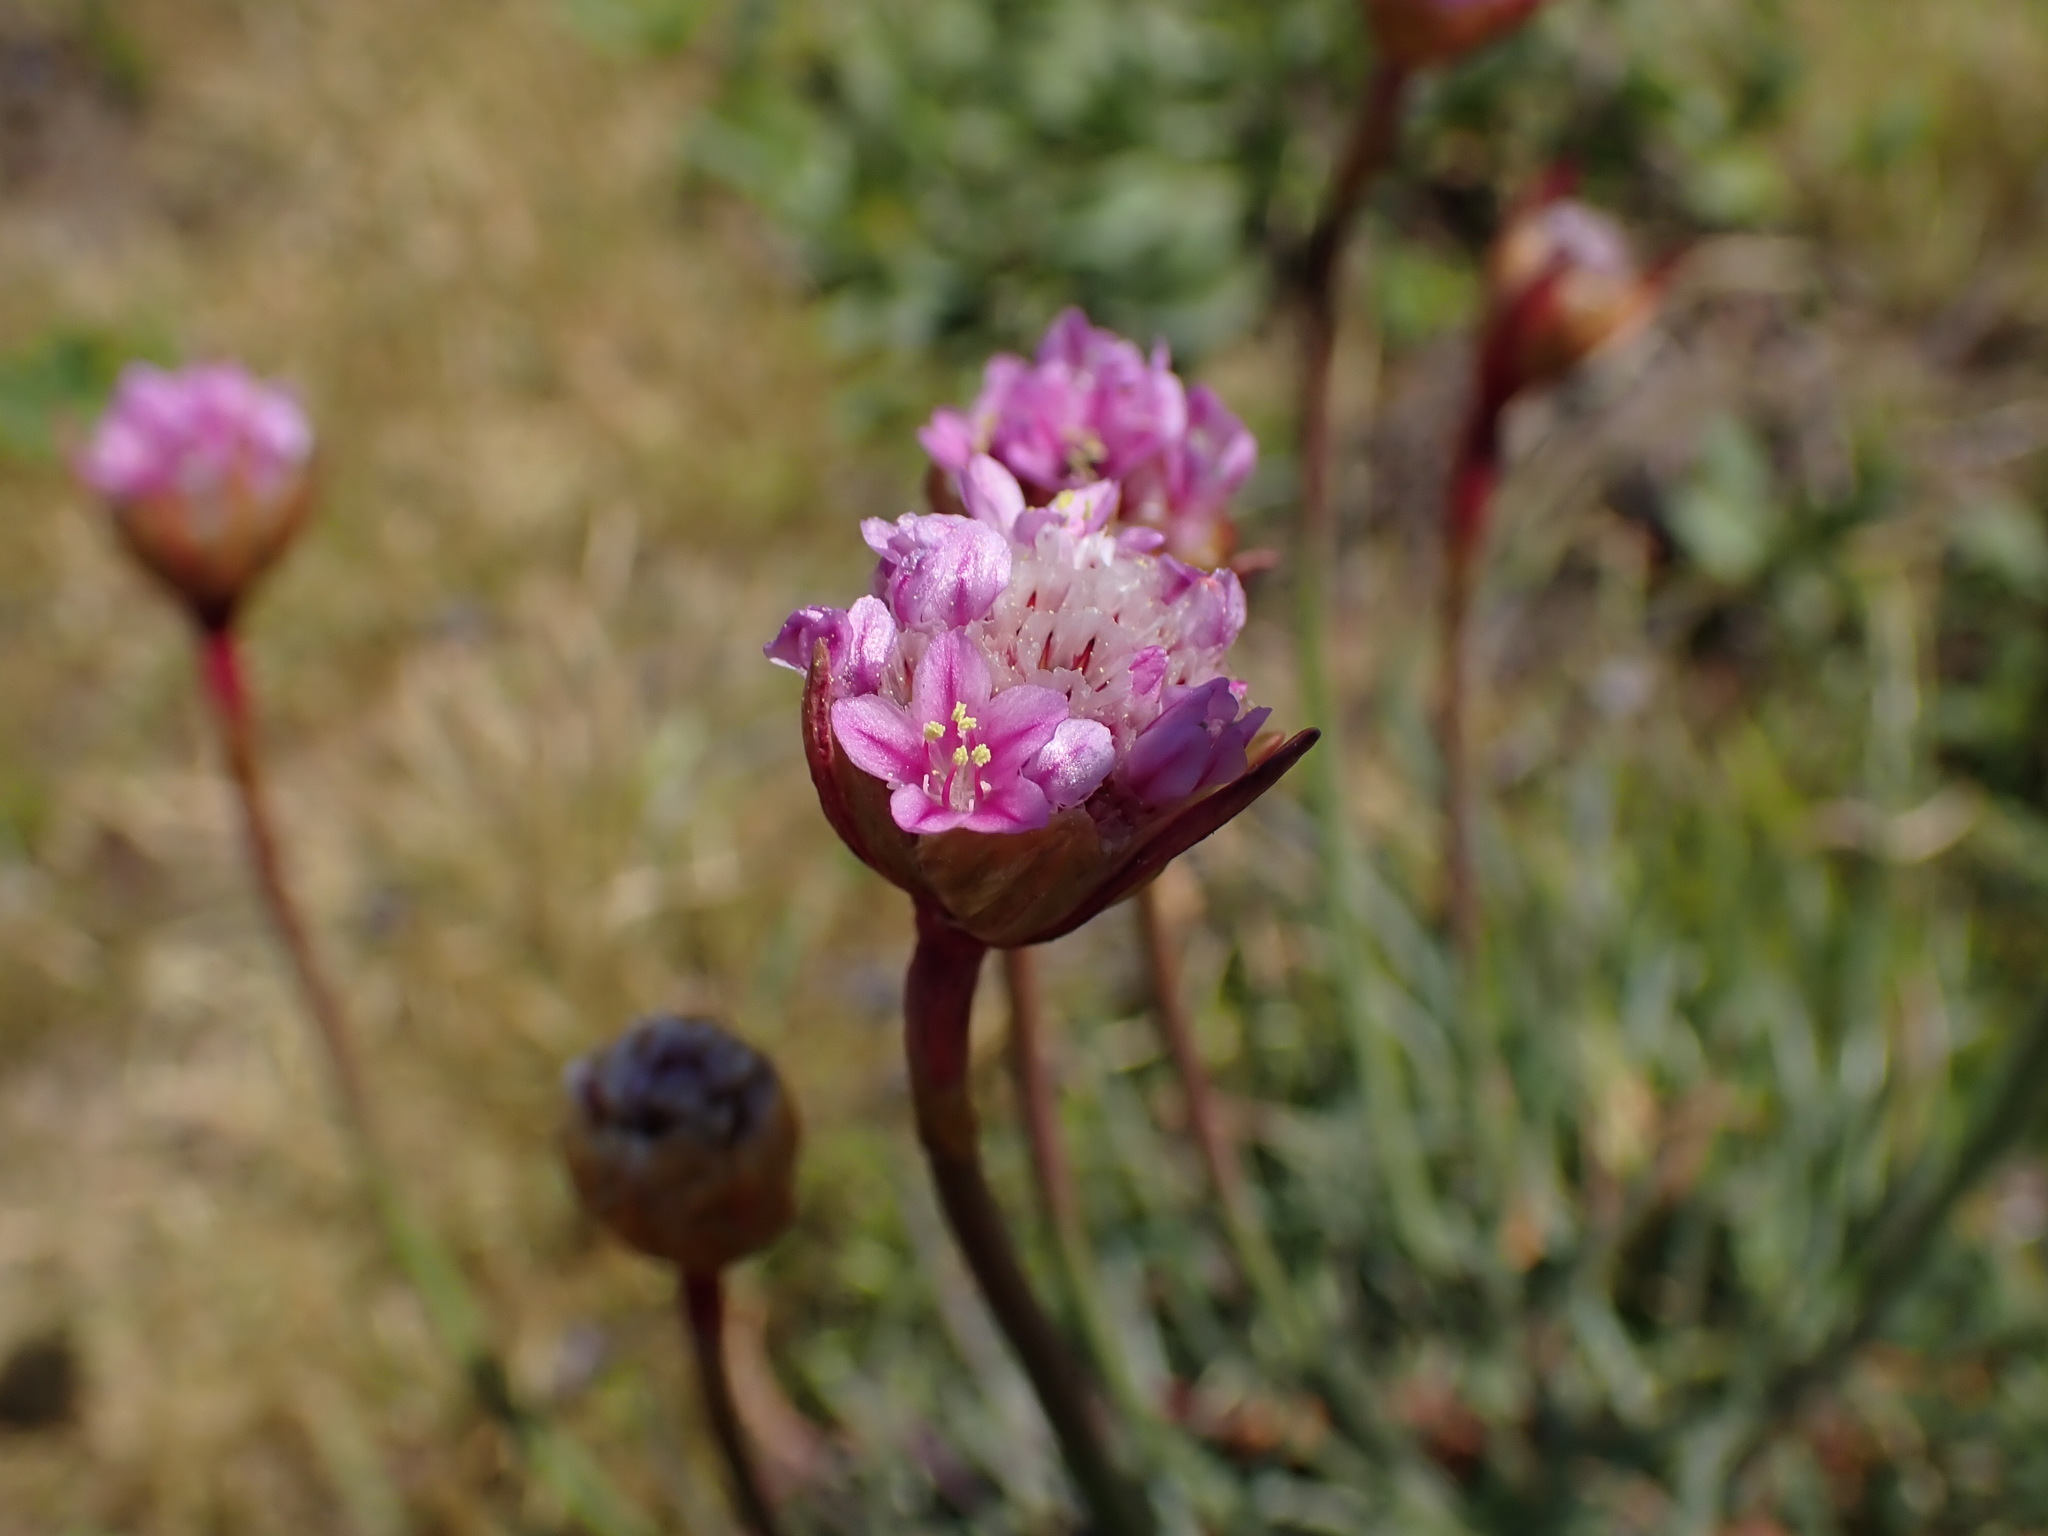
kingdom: Plantae
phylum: Tracheophyta
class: Magnoliopsida
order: Caryophyllales
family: Plumbaginaceae
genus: Armeria
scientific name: Armeria maritima
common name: Thrift
